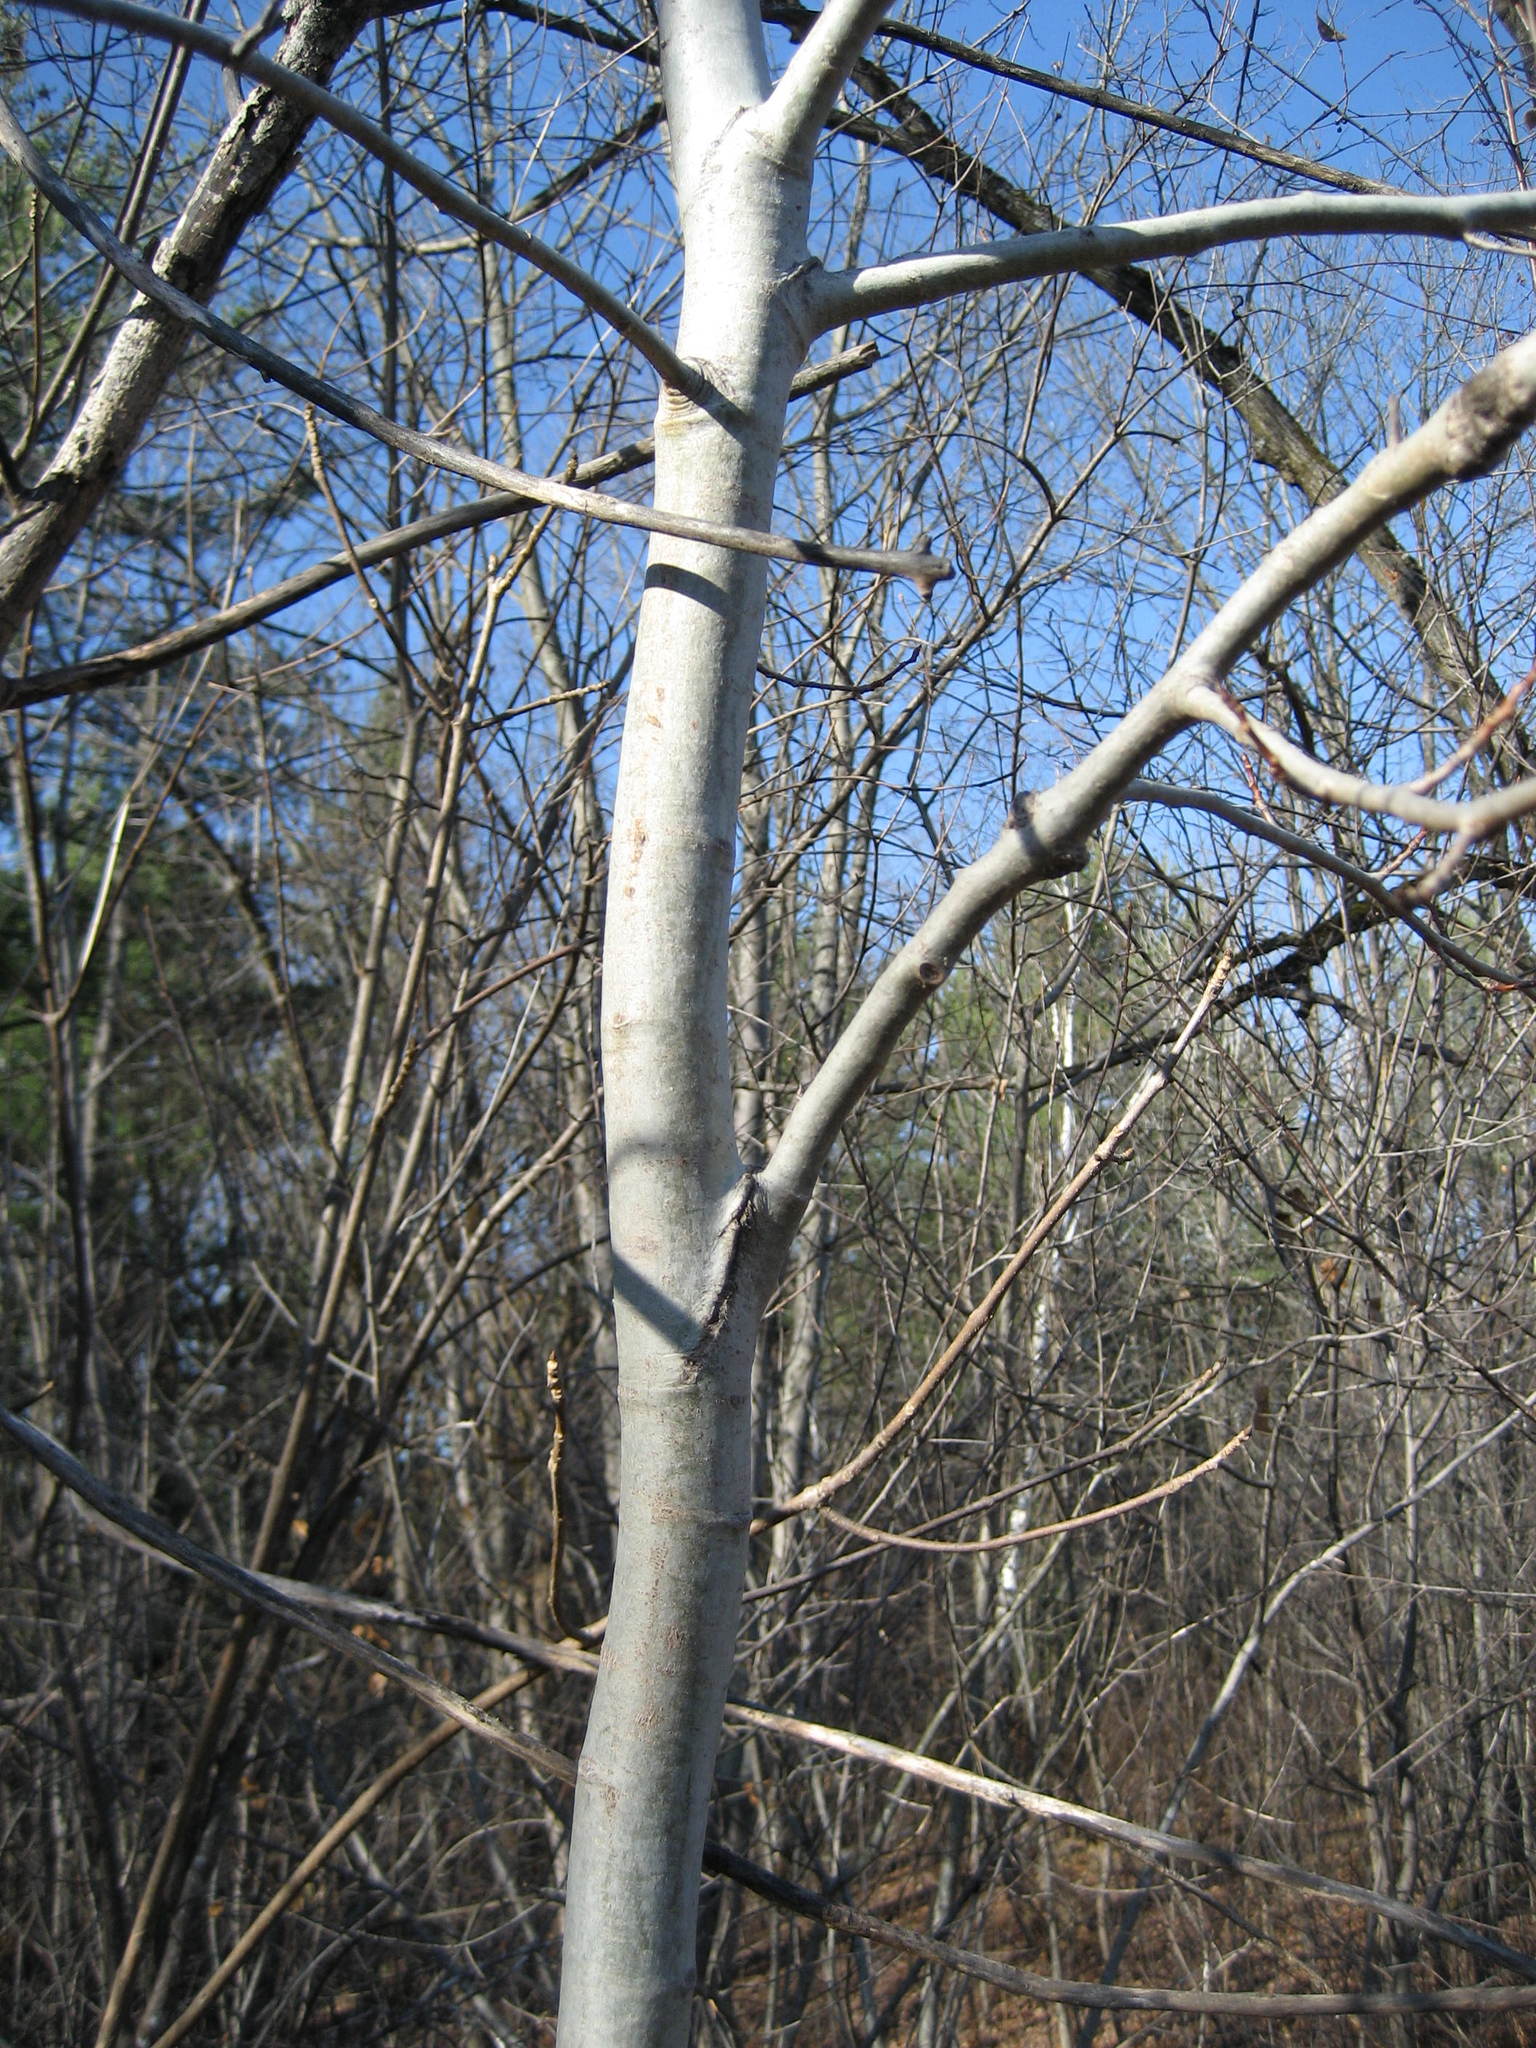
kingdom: Plantae
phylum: Tracheophyta
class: Magnoliopsida
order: Malpighiales
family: Salicaceae
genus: Populus
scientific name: Populus tremuloides
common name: Quaking aspen
